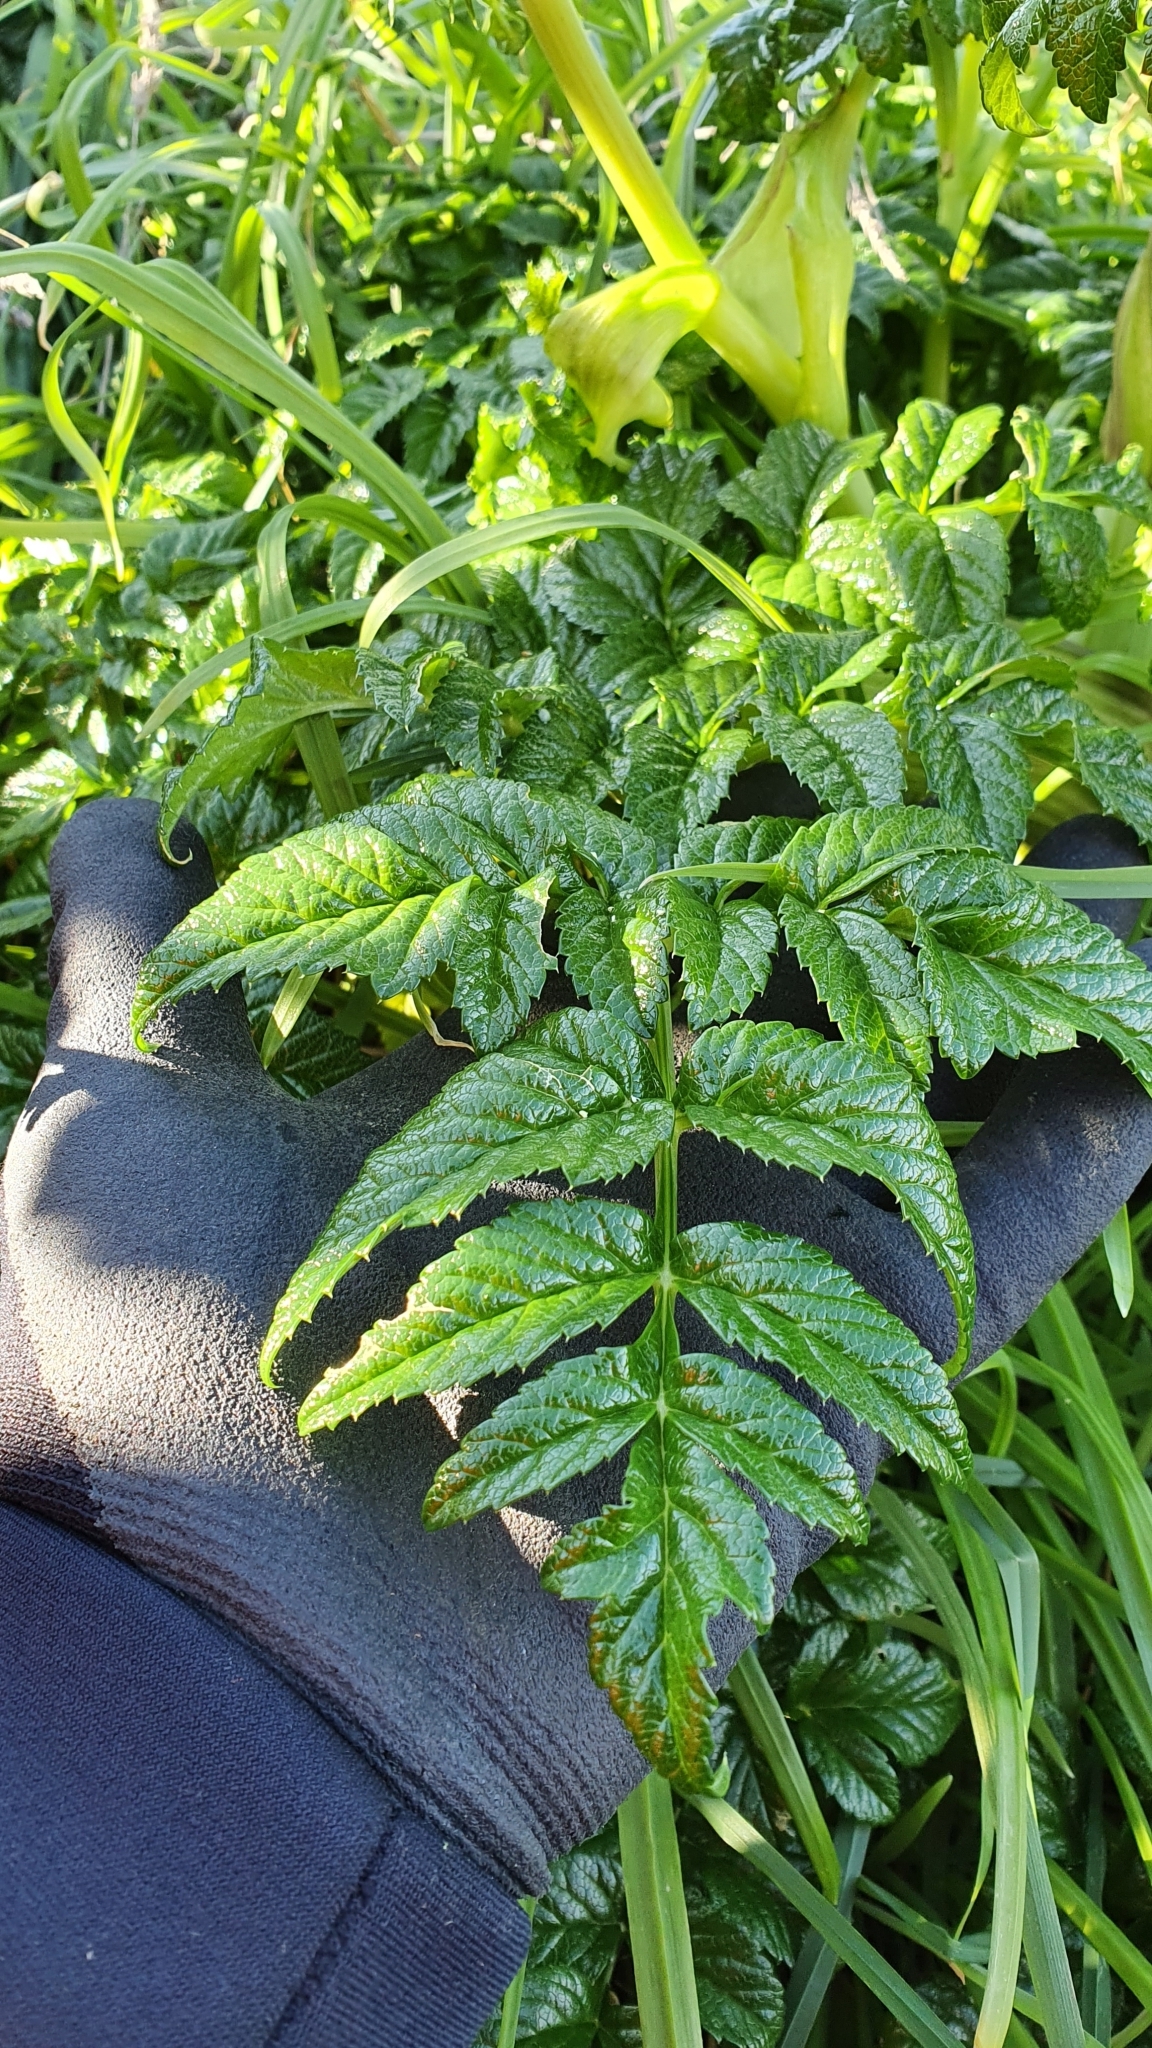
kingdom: Plantae
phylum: Tracheophyta
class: Magnoliopsida
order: Apiales
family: Apiaceae
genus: Angelica
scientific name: Angelica pachycarpa
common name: Portuguese angelica
